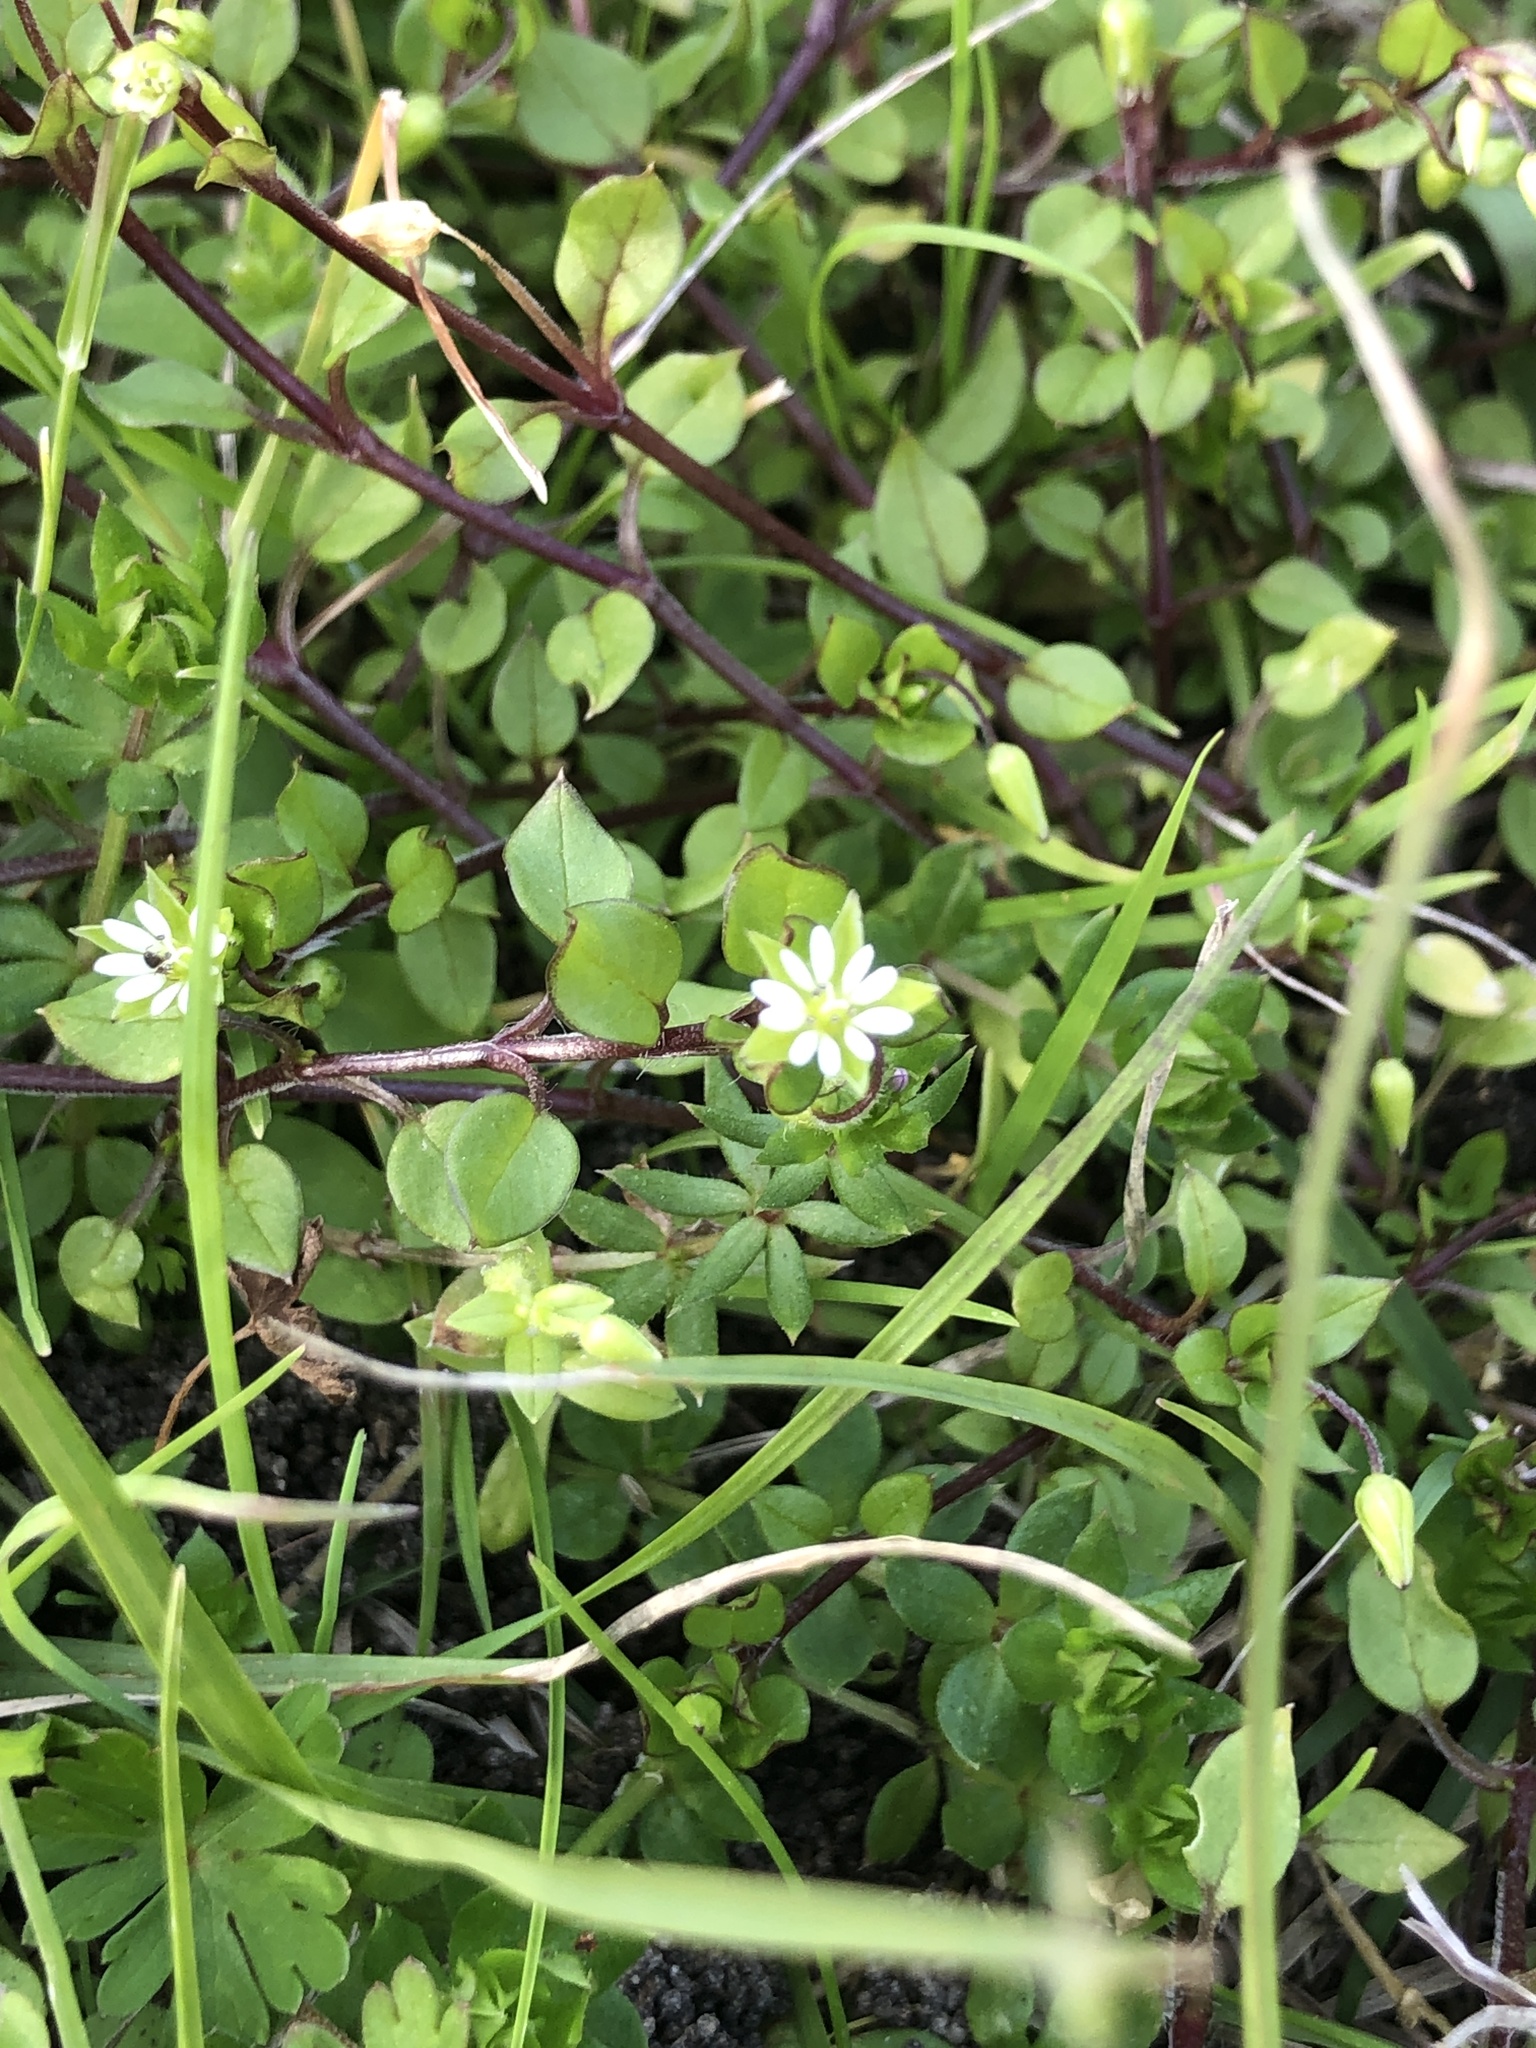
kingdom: Plantae
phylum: Tracheophyta
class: Magnoliopsida
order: Caryophyllales
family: Caryophyllaceae
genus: Stellaria
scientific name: Stellaria media
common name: Common chickweed
